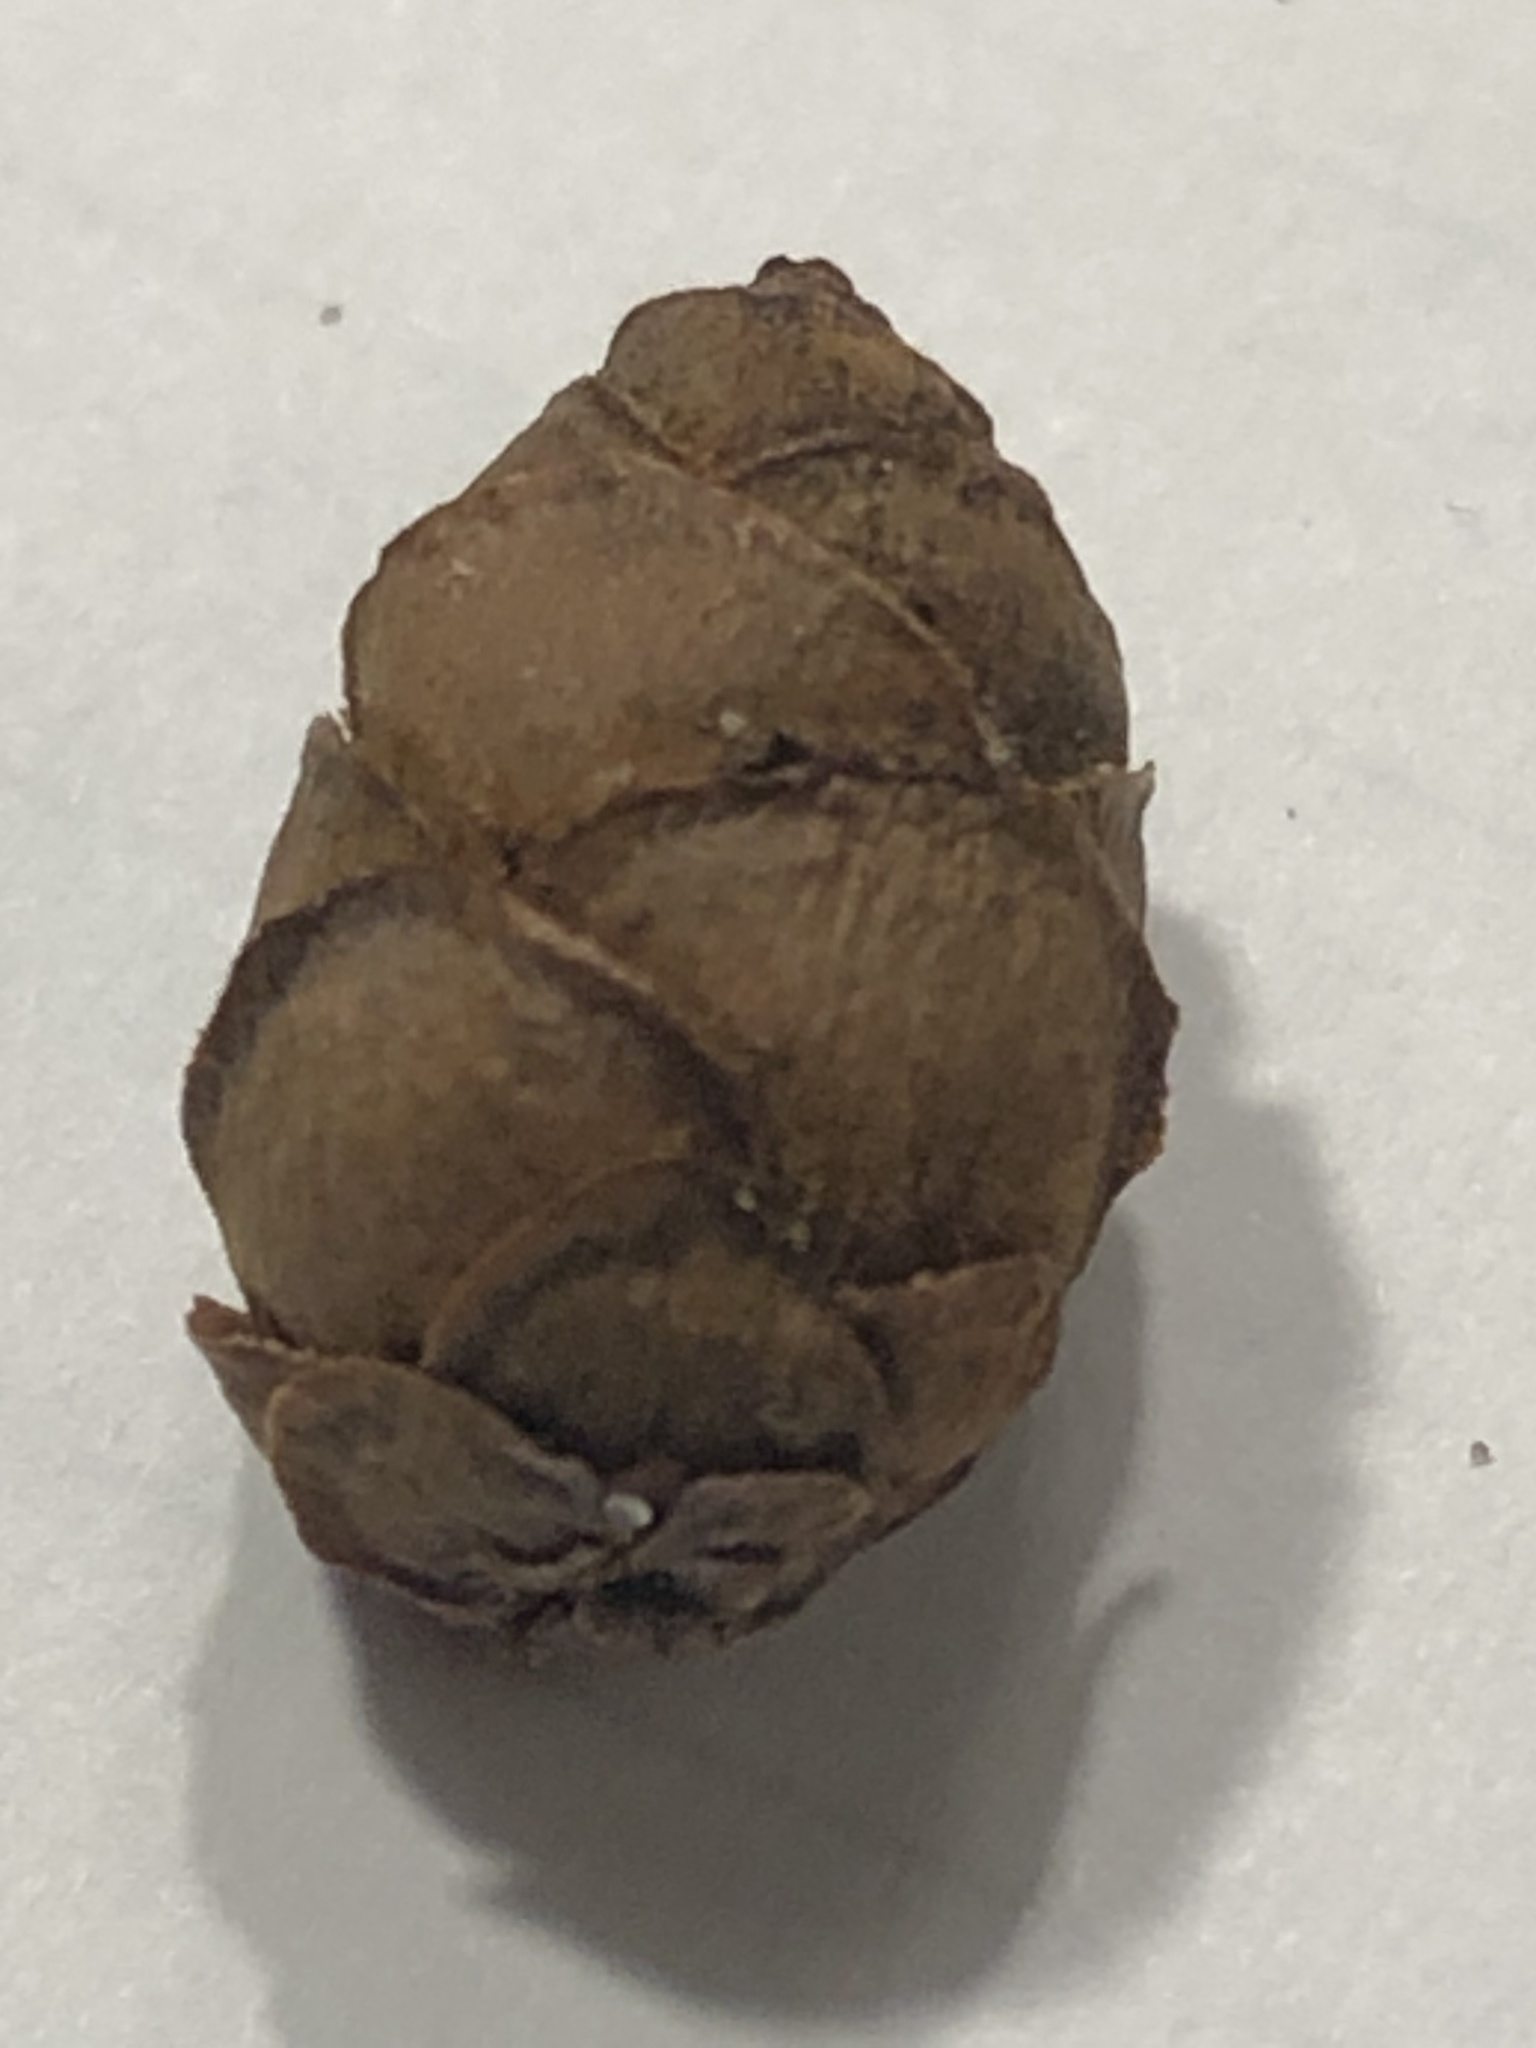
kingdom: Plantae
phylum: Tracheophyta
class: Pinopsida
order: Pinales
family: Pinaceae
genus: Tsuga
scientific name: Tsuga canadensis
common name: Eastern hemlock
